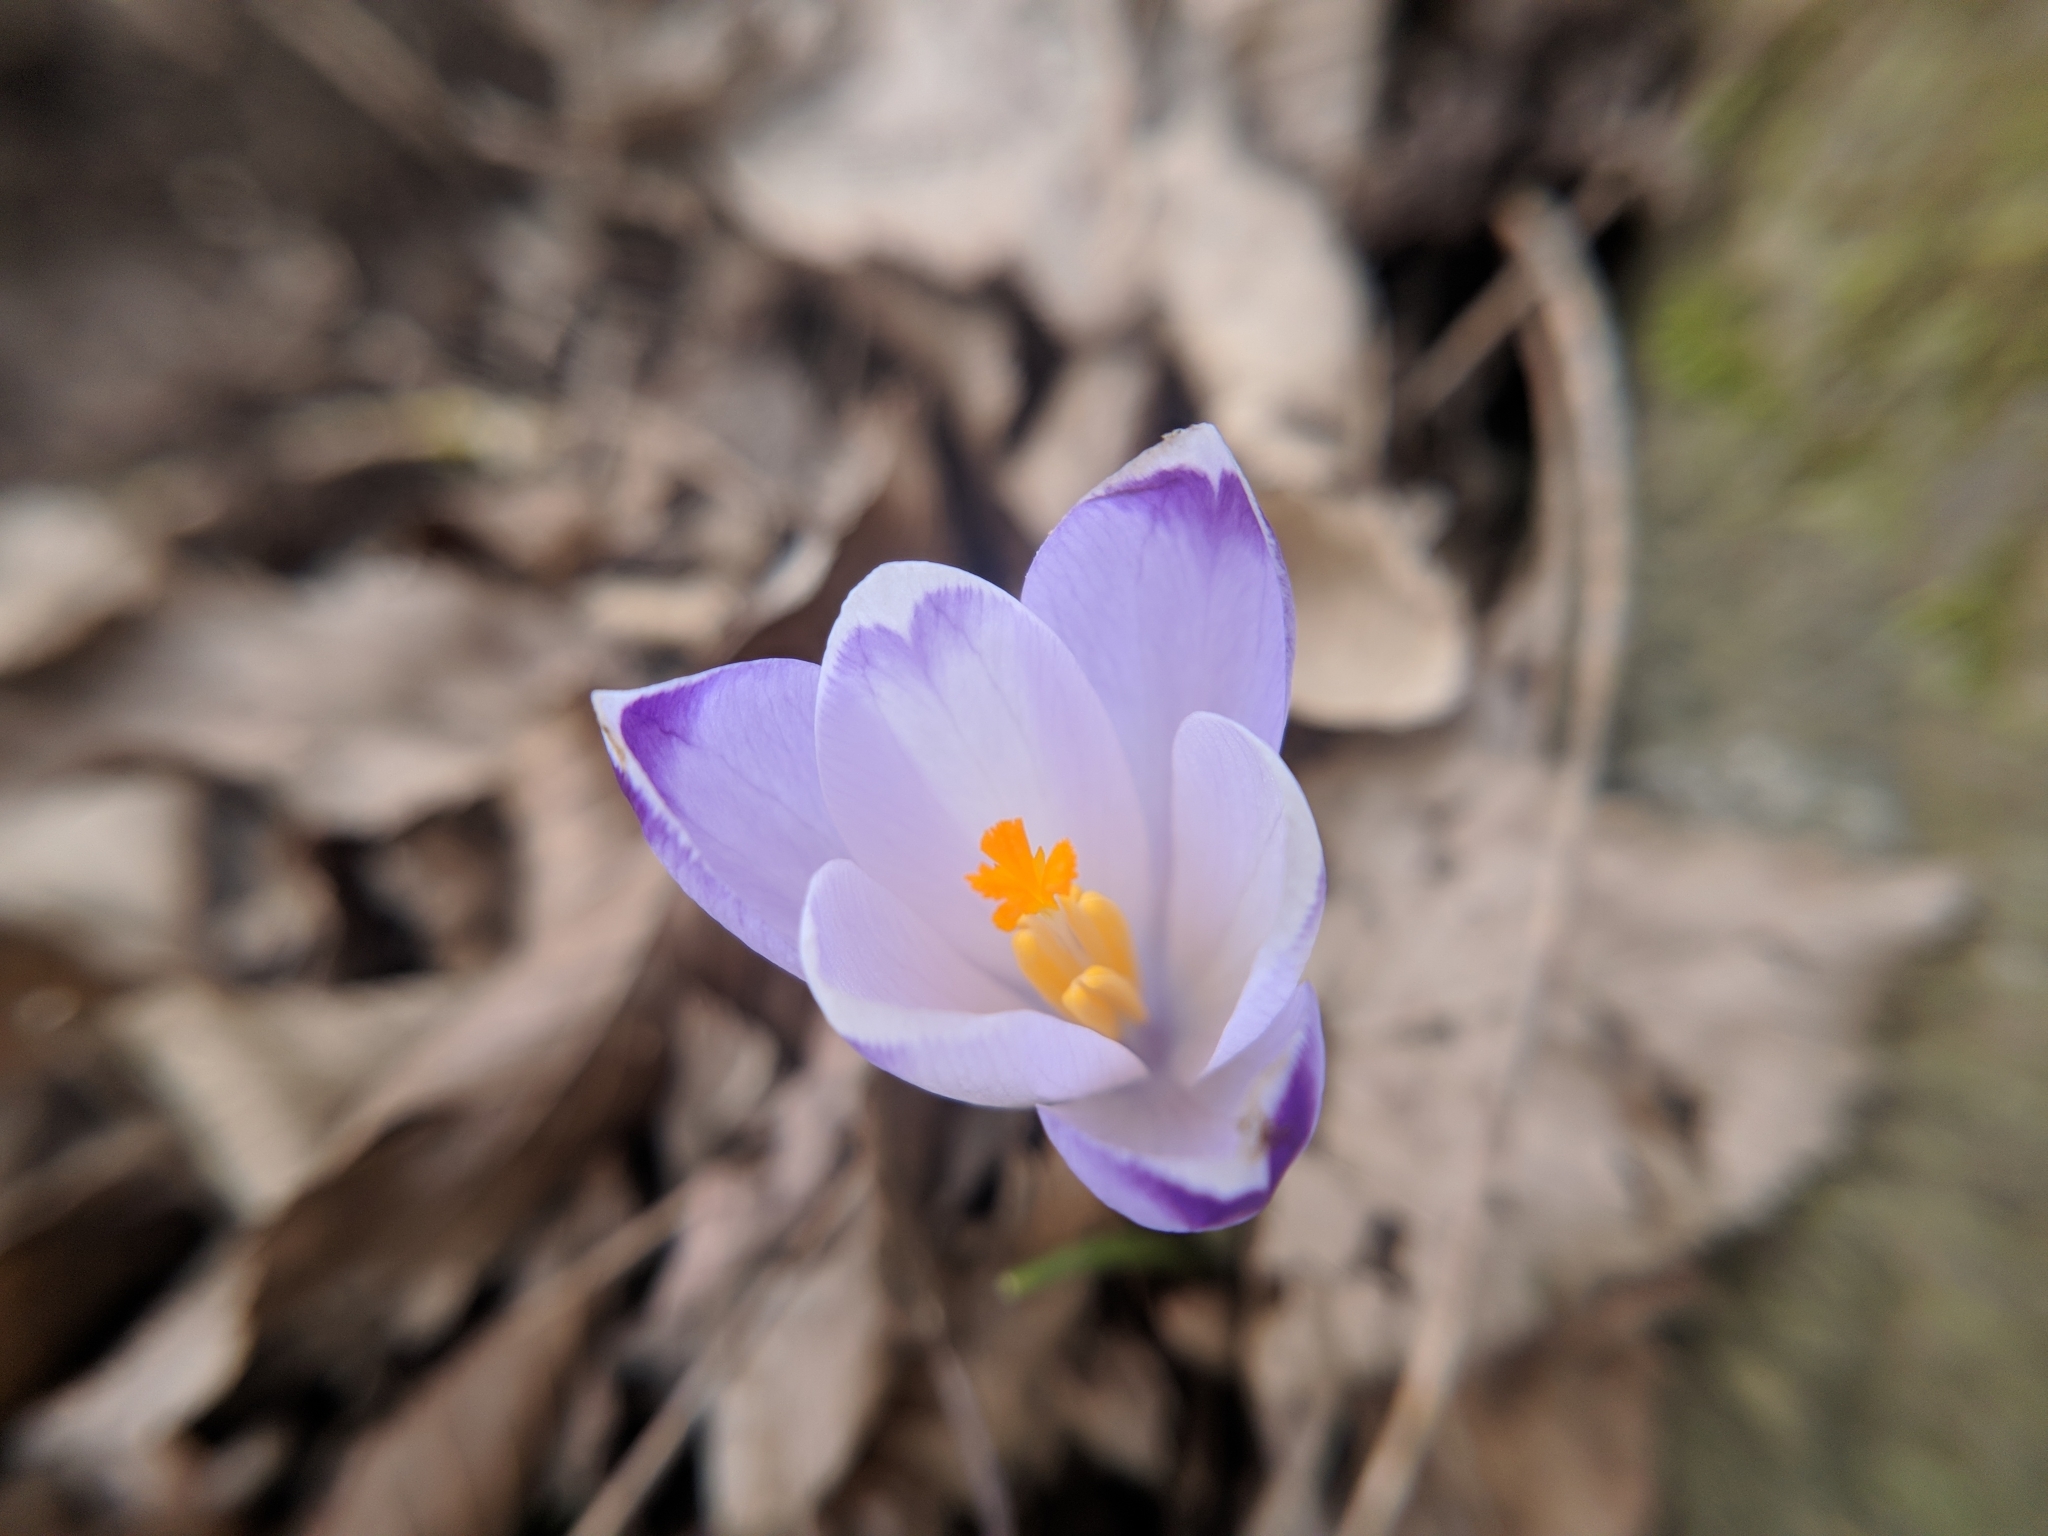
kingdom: Plantae
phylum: Tracheophyta
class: Liliopsida
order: Asparagales
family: Iridaceae
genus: Crocus
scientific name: Crocus heuffelianus
